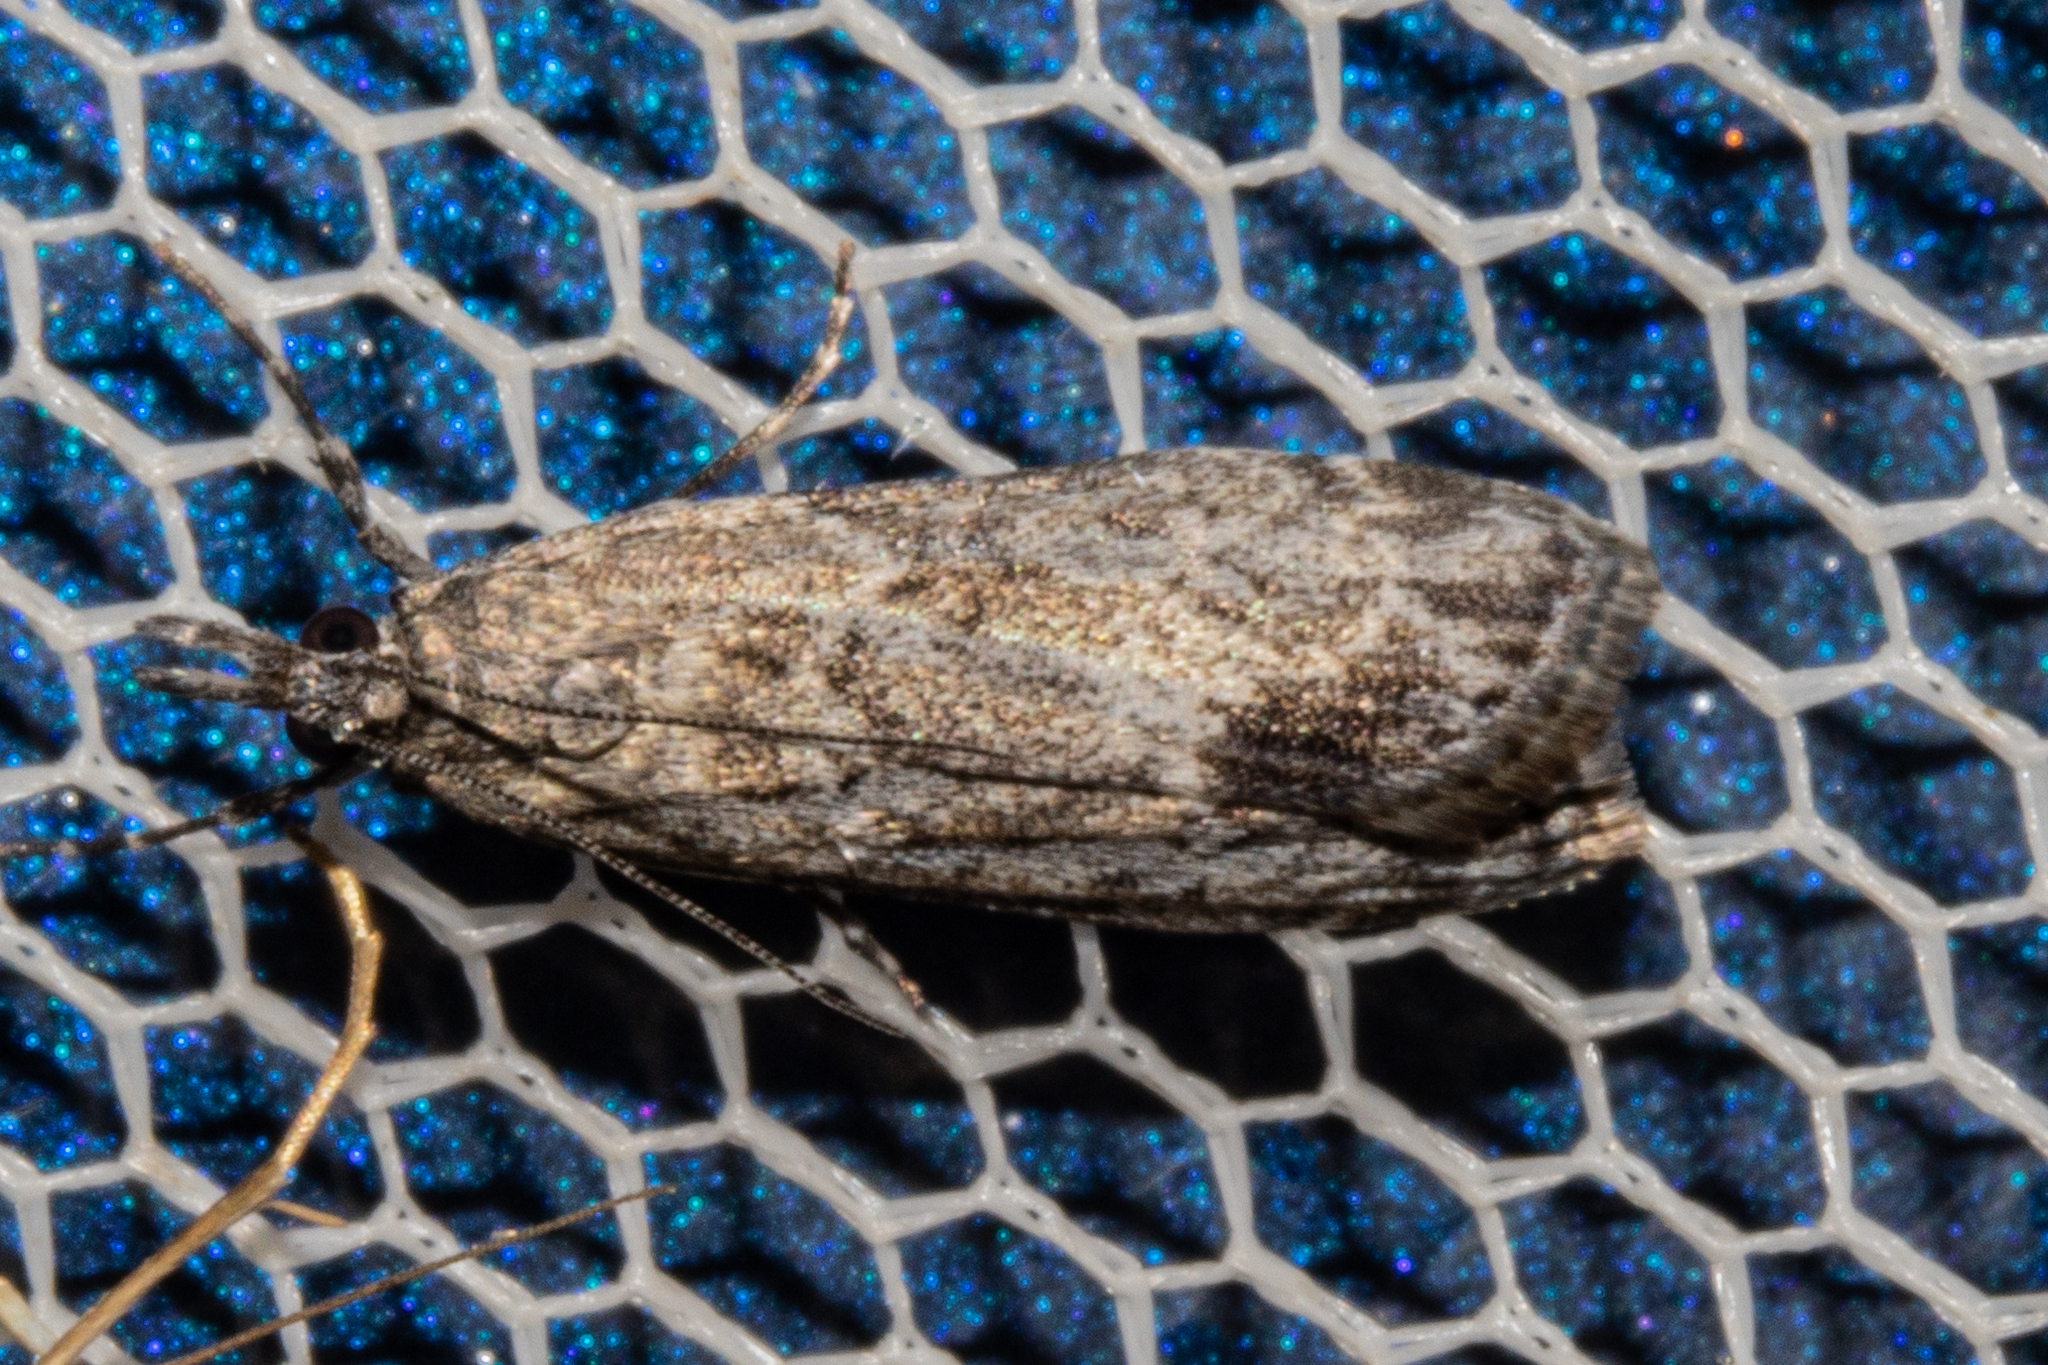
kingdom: Animalia
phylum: Arthropoda
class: Insecta
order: Lepidoptera
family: Crambidae
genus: Eudonia
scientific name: Eudonia rakaiensis
